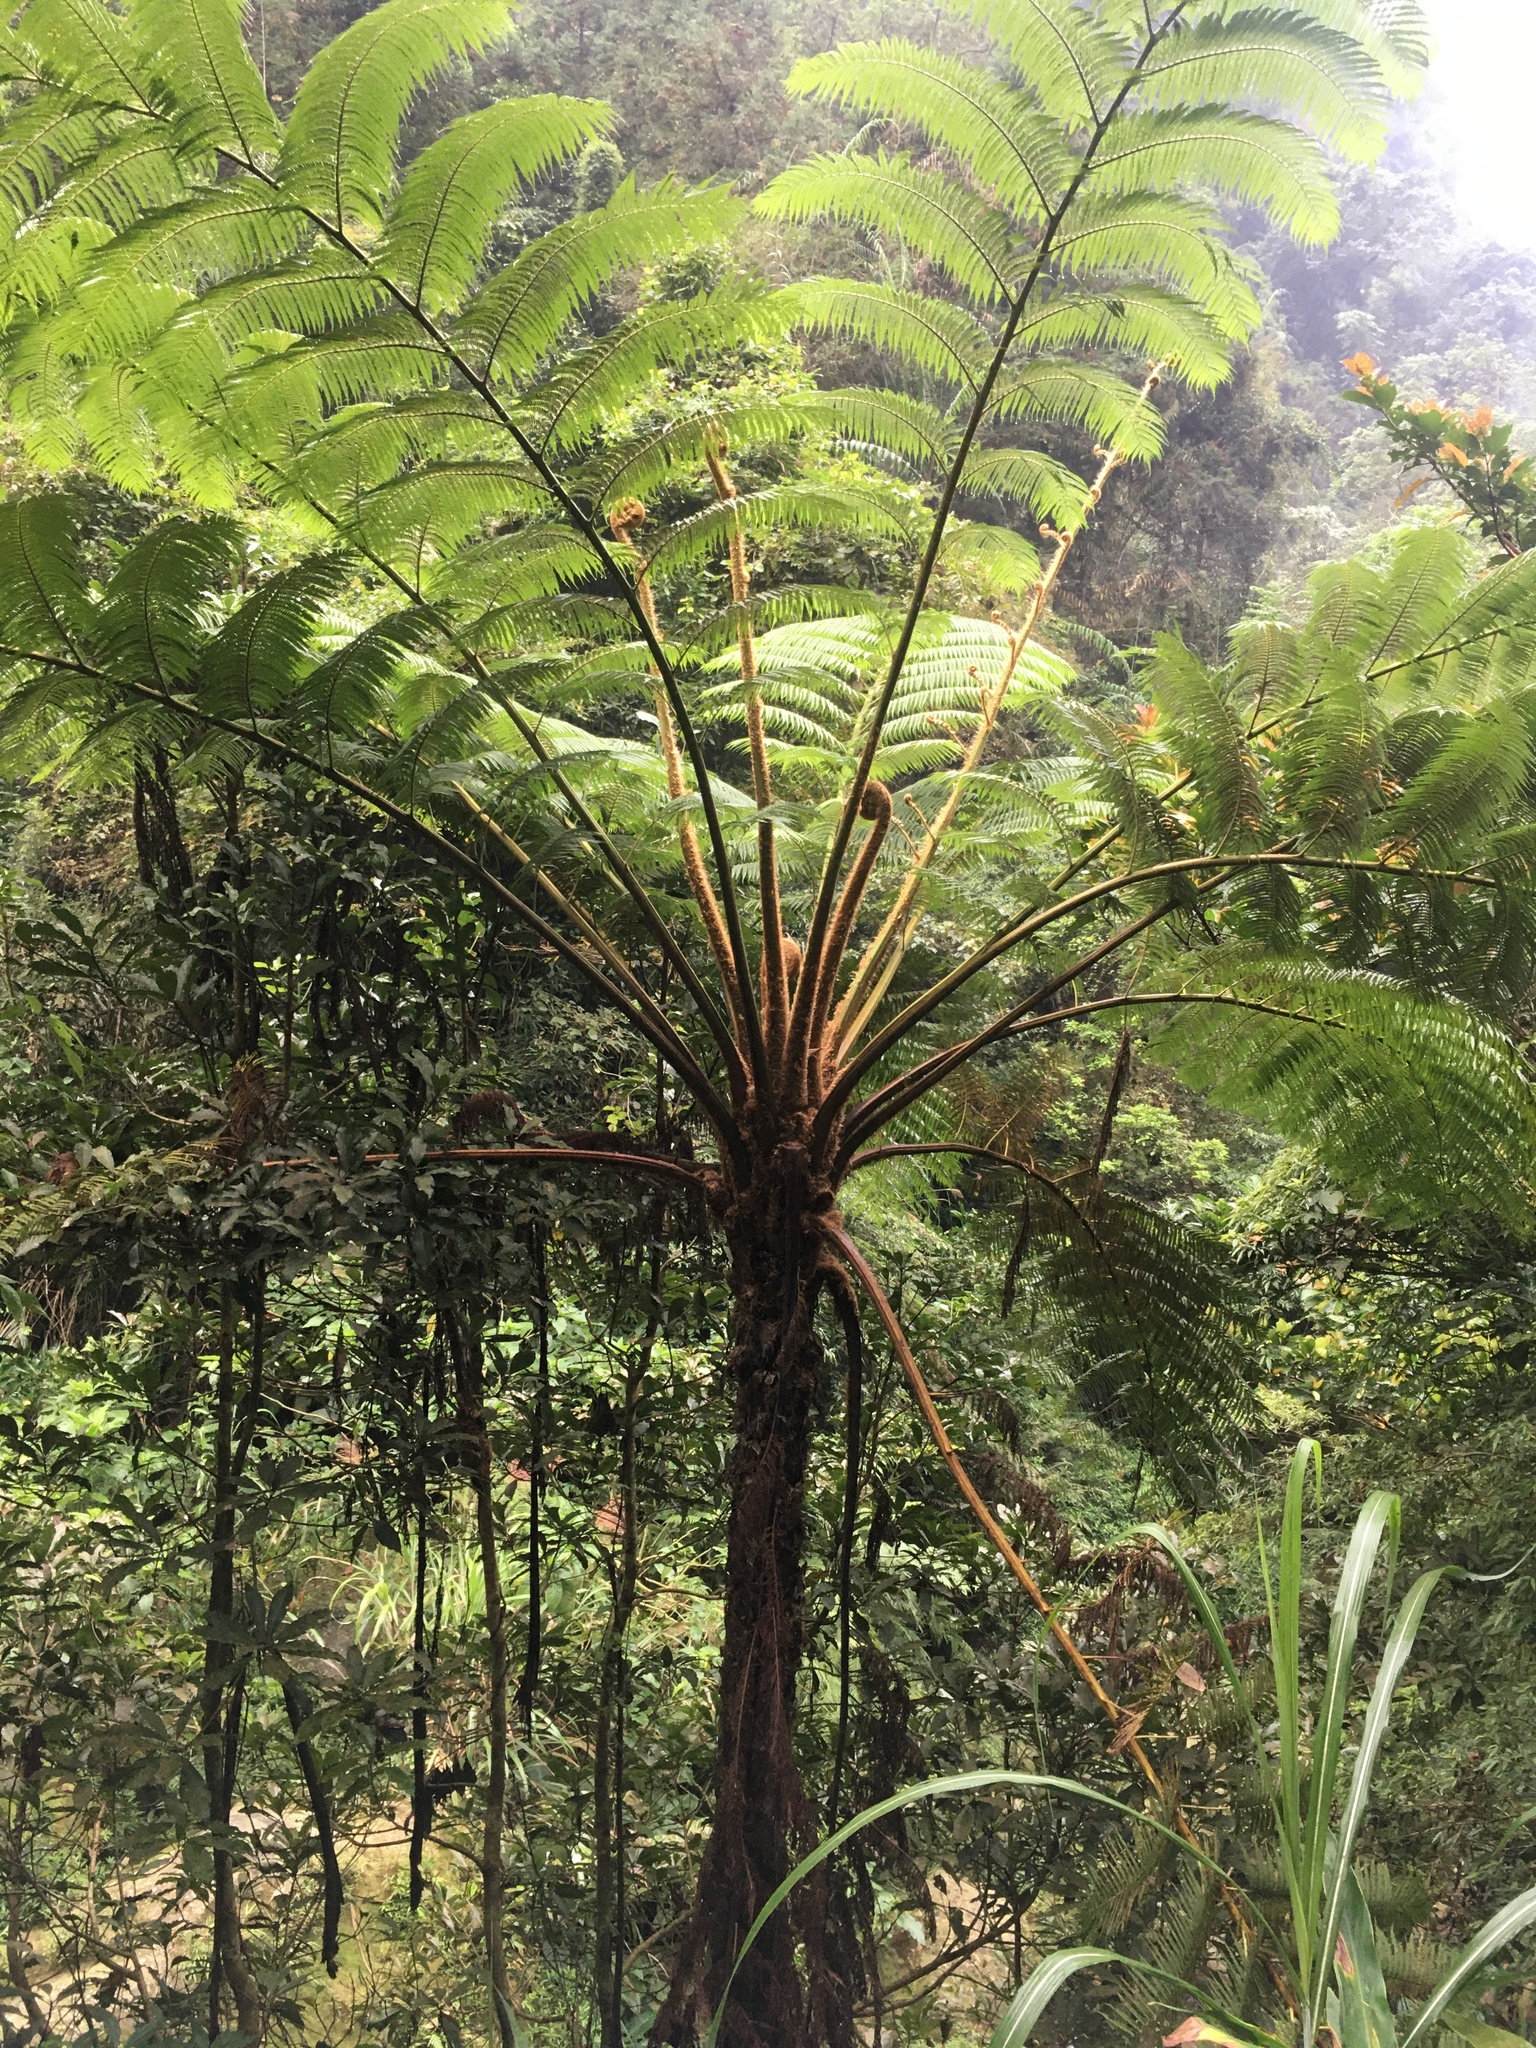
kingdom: Plantae
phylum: Tracheophyta
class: Polypodiopsida
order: Cyatheales
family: Cyatheaceae
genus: Alsophila
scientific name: Alsophila lepifera
